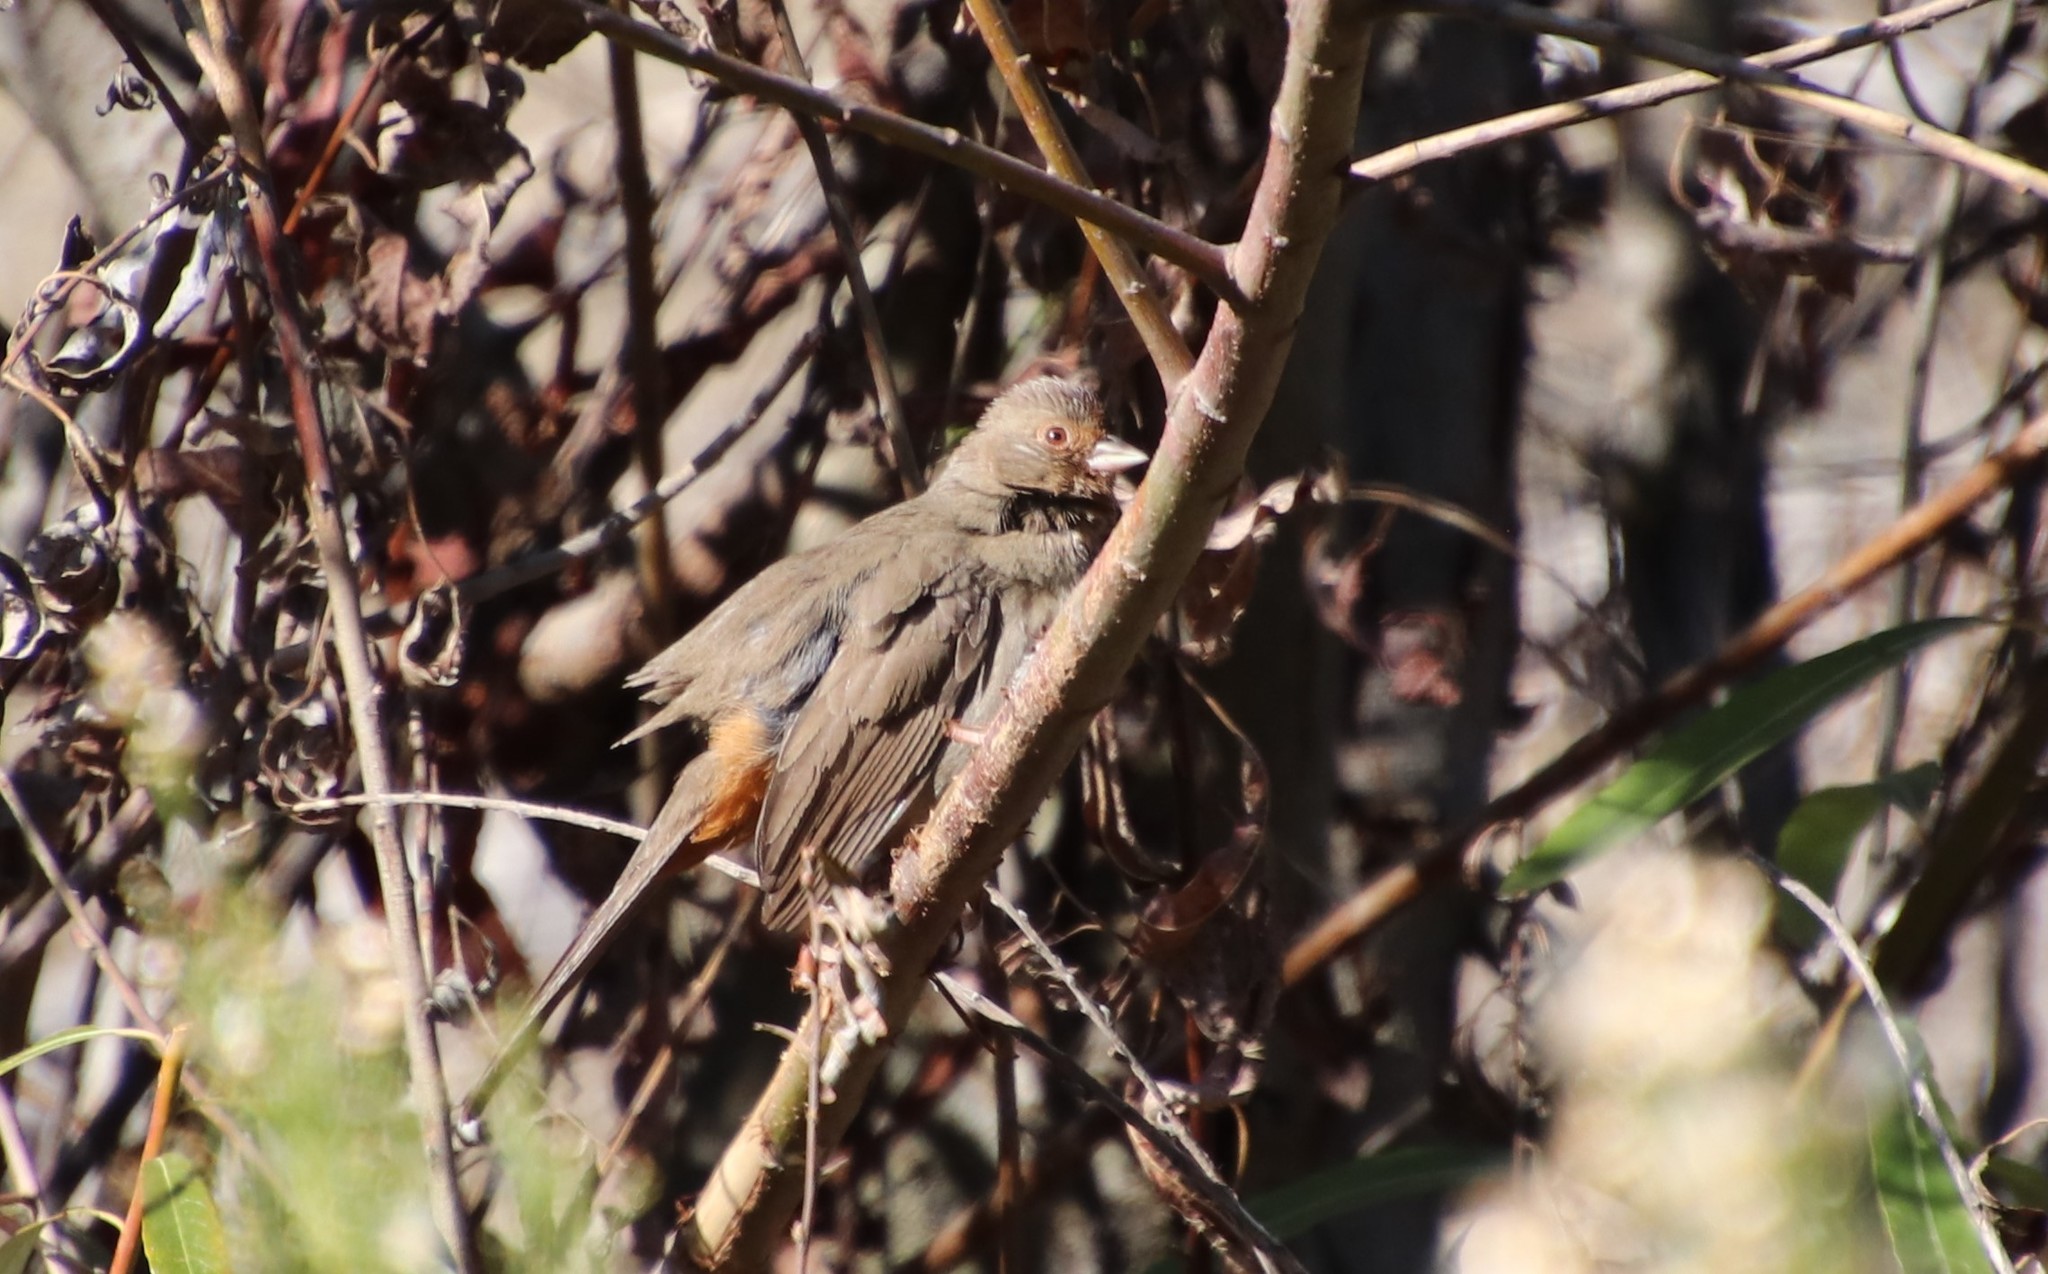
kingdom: Animalia
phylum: Chordata
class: Aves
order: Passeriformes
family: Passerellidae
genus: Melozone
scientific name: Melozone crissalis
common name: California towhee
